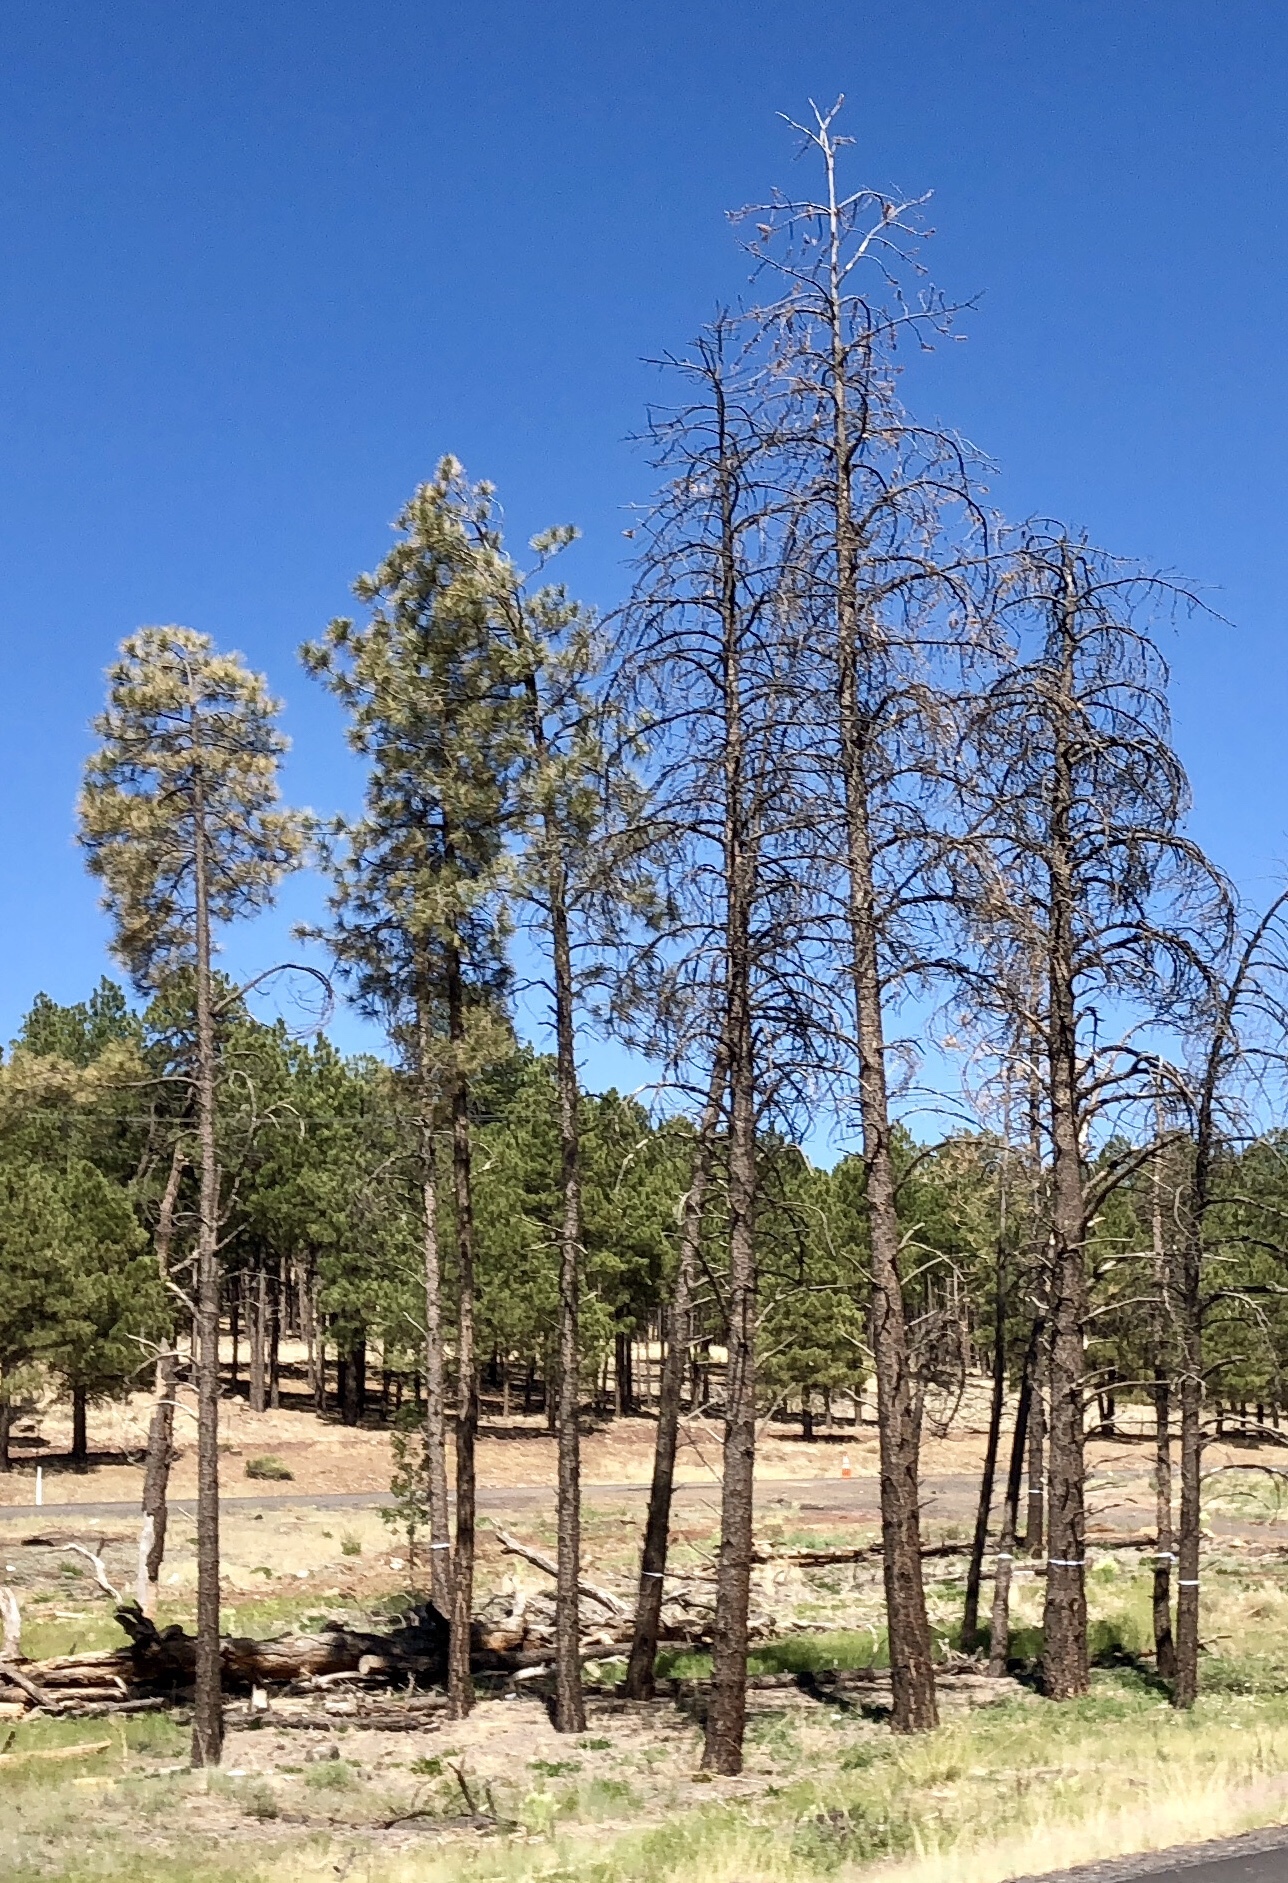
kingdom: Plantae
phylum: Tracheophyta
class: Pinopsida
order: Pinales
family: Pinaceae
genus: Pinus
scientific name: Pinus ponderosa
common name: Western yellow-pine
